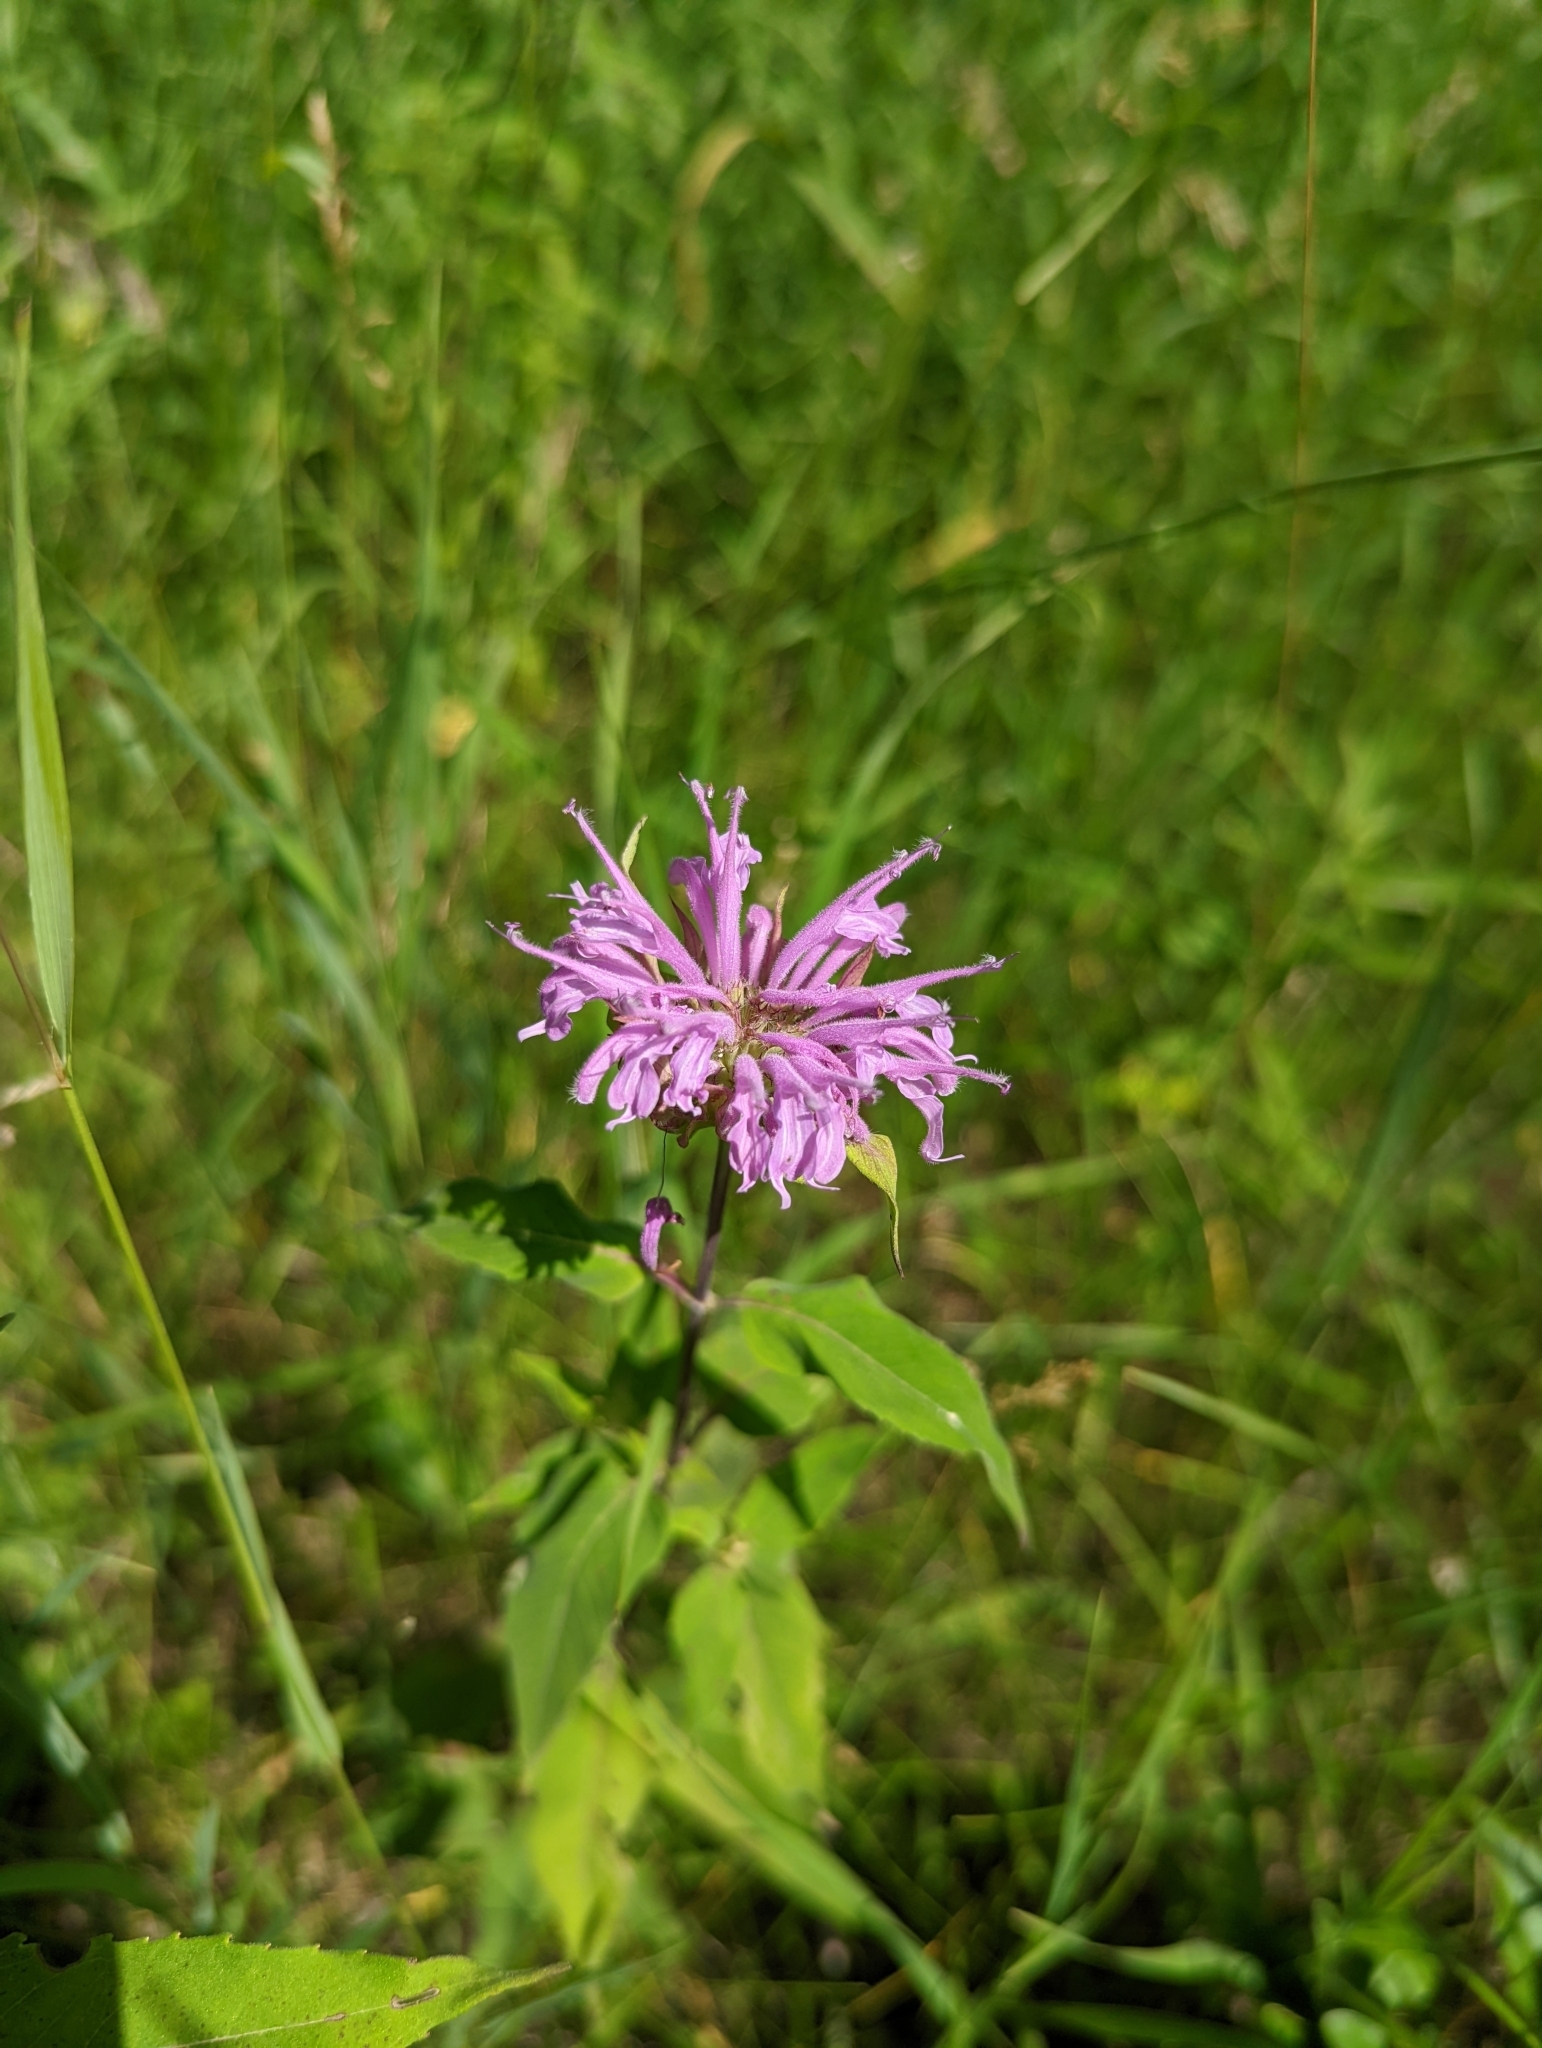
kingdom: Plantae
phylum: Tracheophyta
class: Magnoliopsida
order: Lamiales
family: Lamiaceae
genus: Monarda
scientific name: Monarda fistulosa
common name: Purple beebalm
